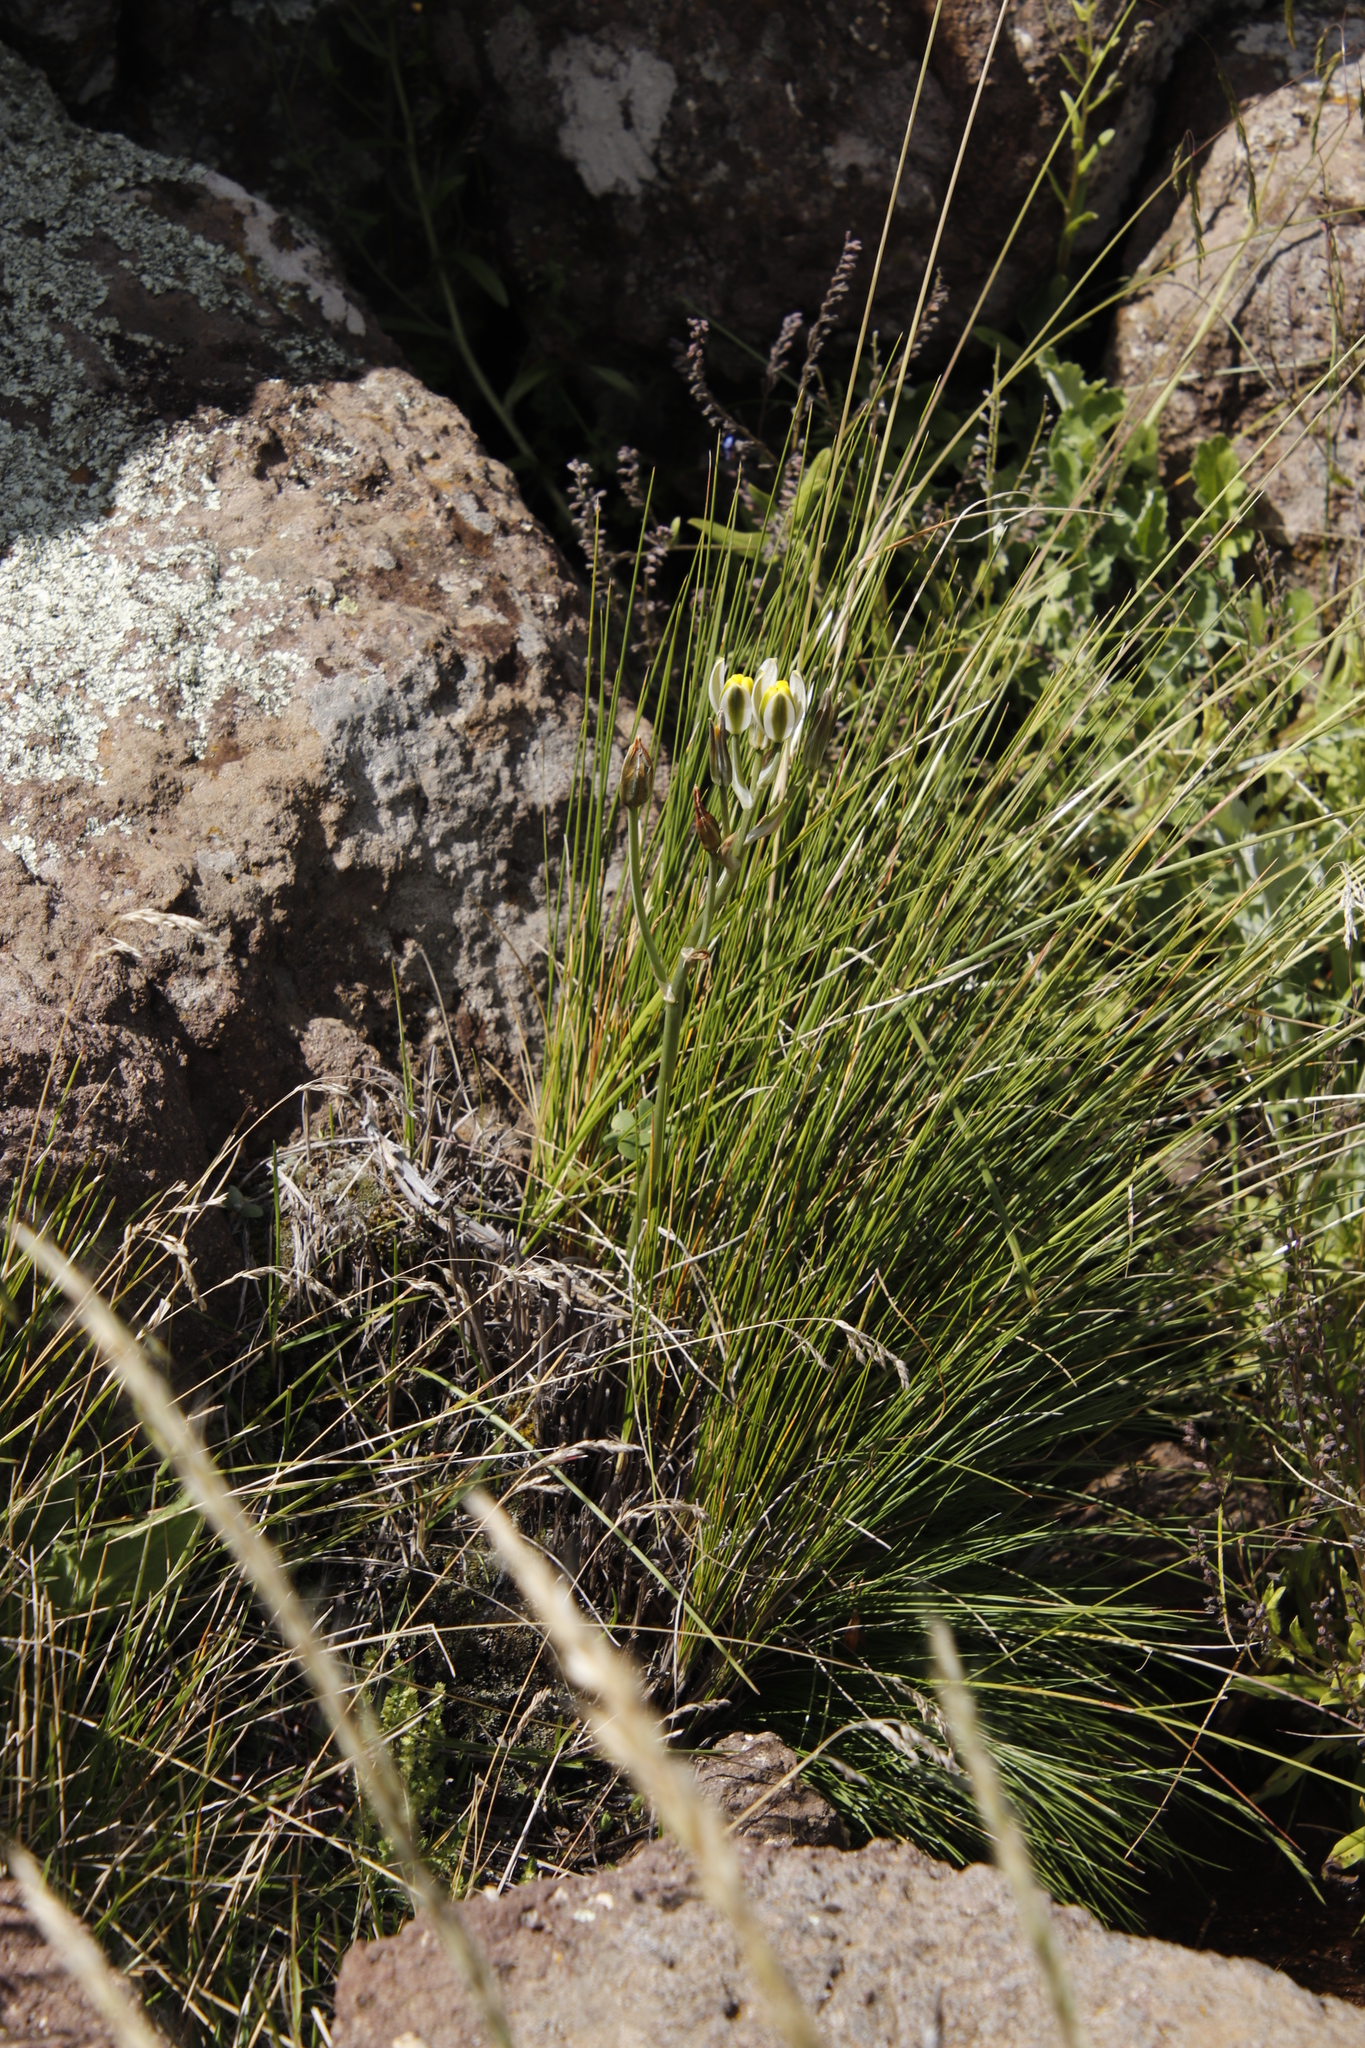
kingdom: Plantae
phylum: Tracheophyta
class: Liliopsida
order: Asparagales
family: Asparagaceae
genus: Albuca
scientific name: Albuca humilis
